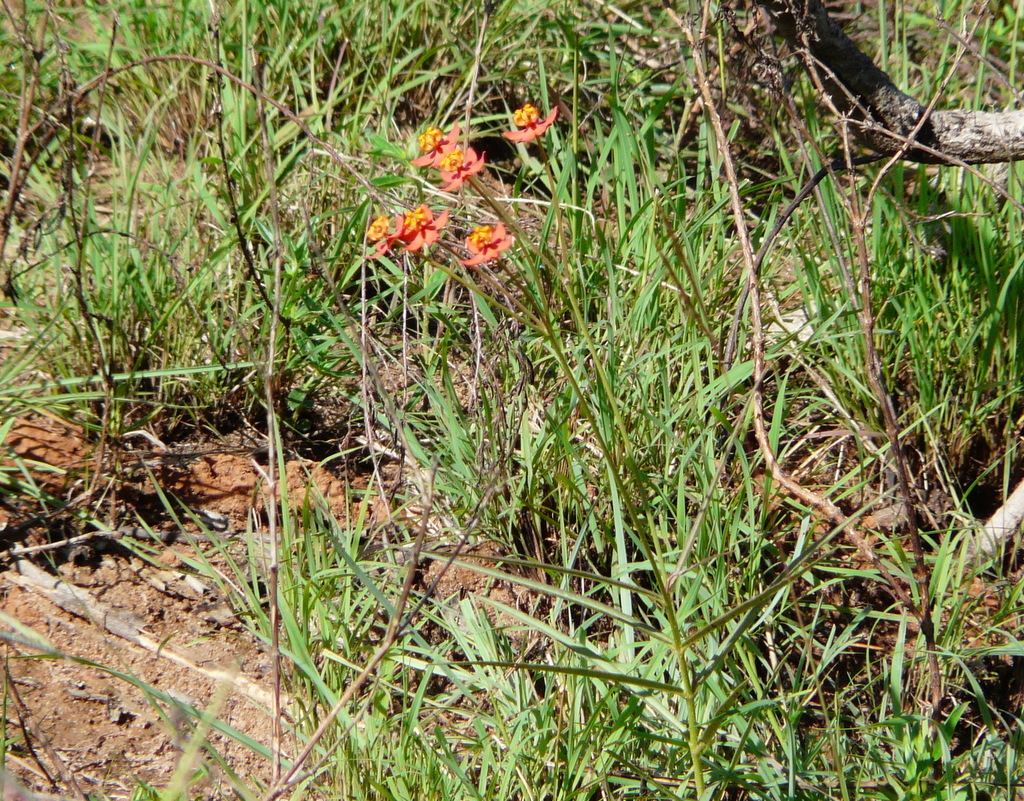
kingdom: Plantae
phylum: Tracheophyta
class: Magnoliopsida
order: Gentianales
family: Apocynaceae
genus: Stathmostelma
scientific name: Stathmostelma pedunculatum
